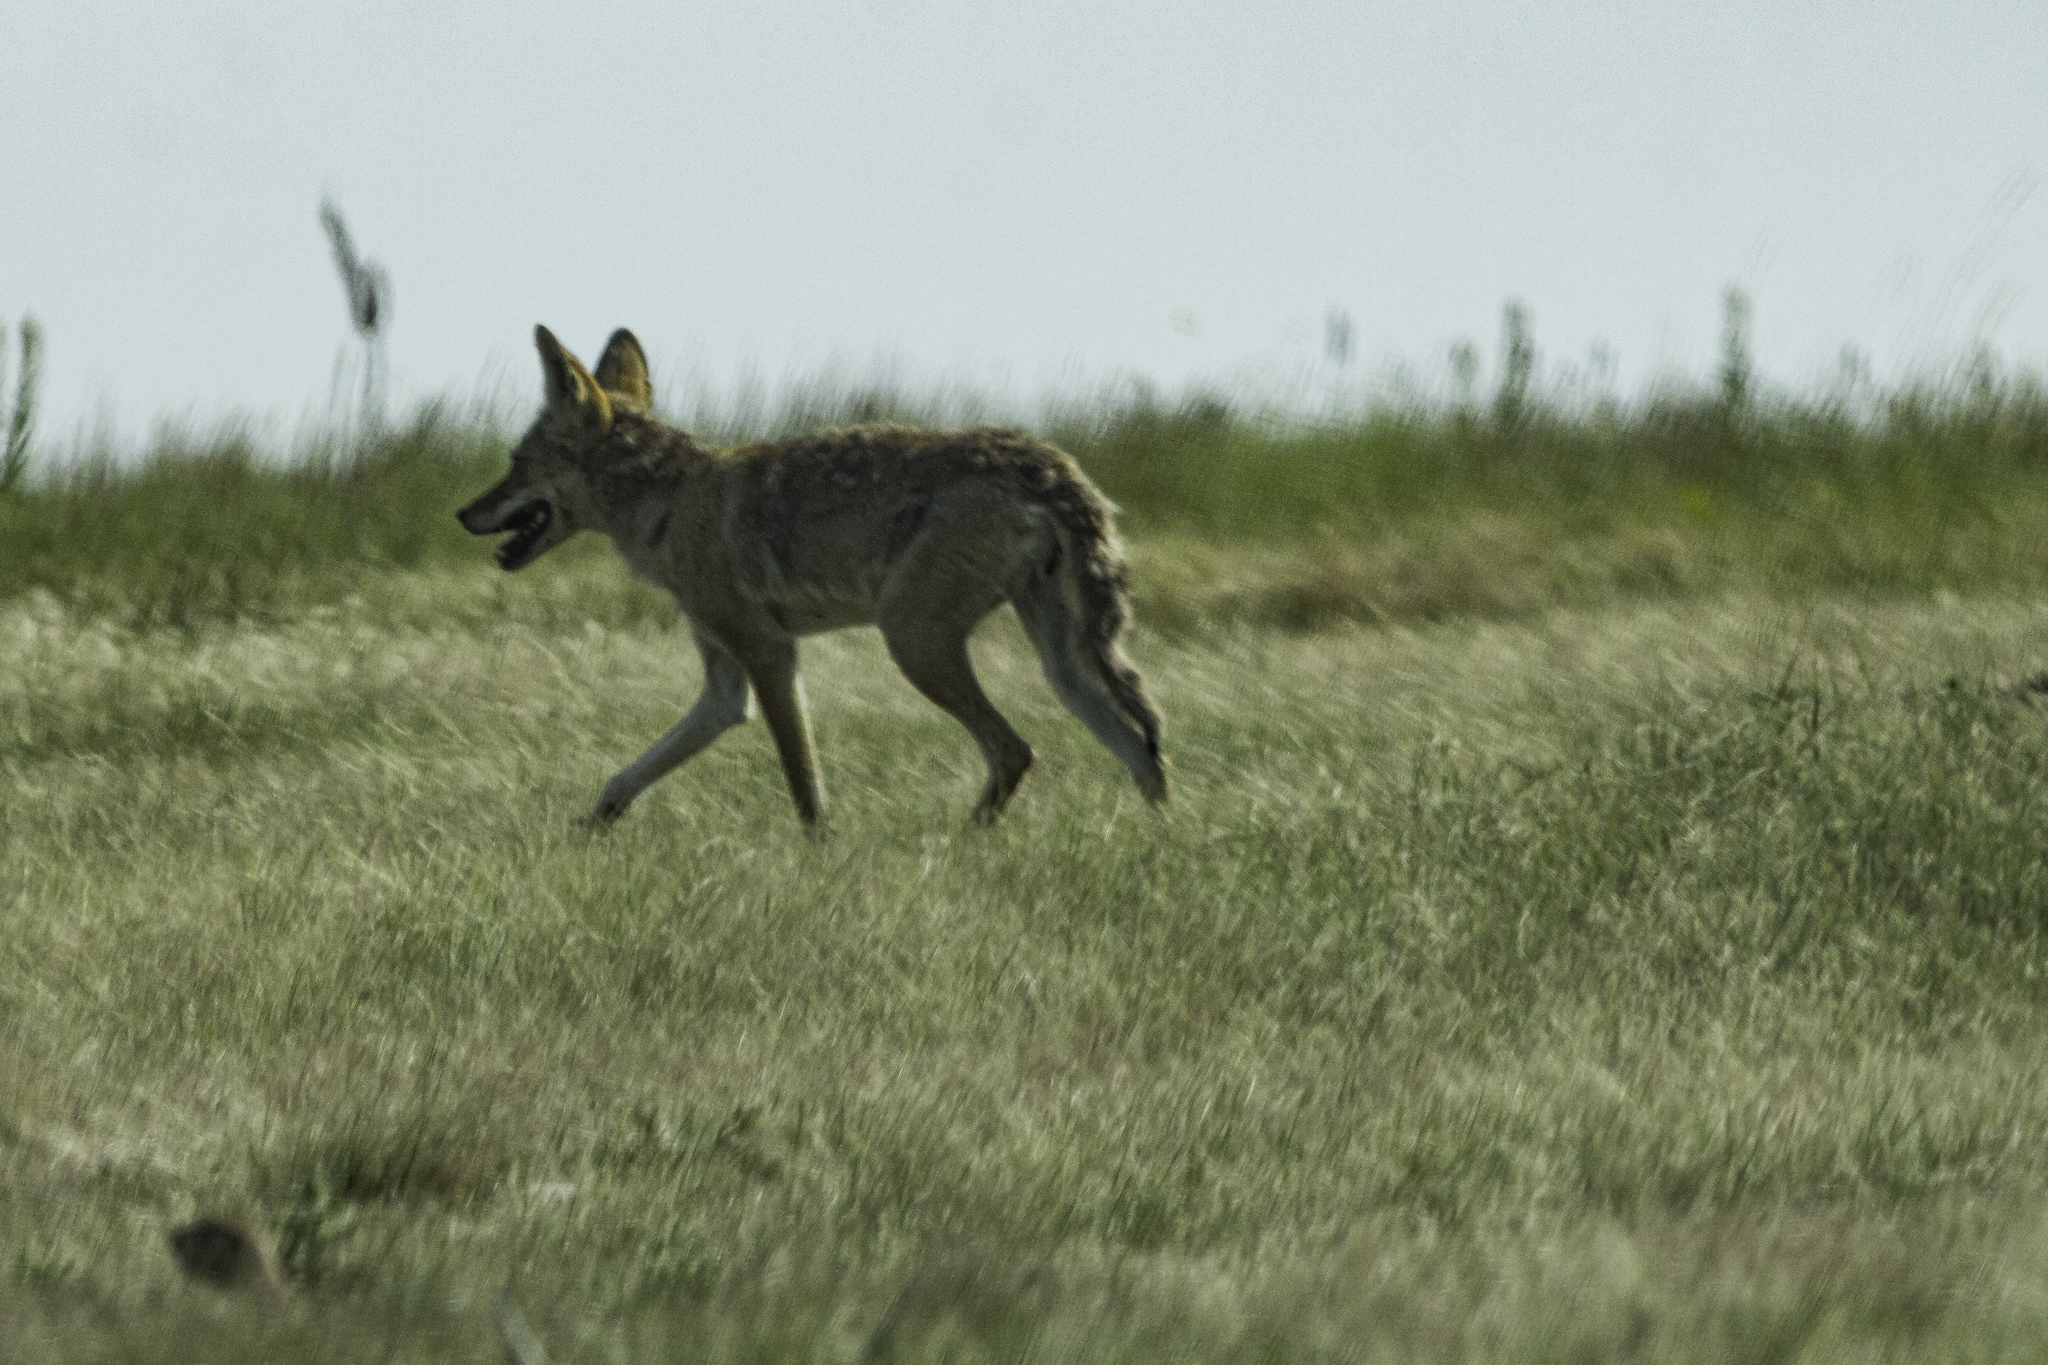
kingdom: Animalia
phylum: Chordata
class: Mammalia
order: Carnivora
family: Canidae
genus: Canis
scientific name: Canis latrans
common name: Coyote
